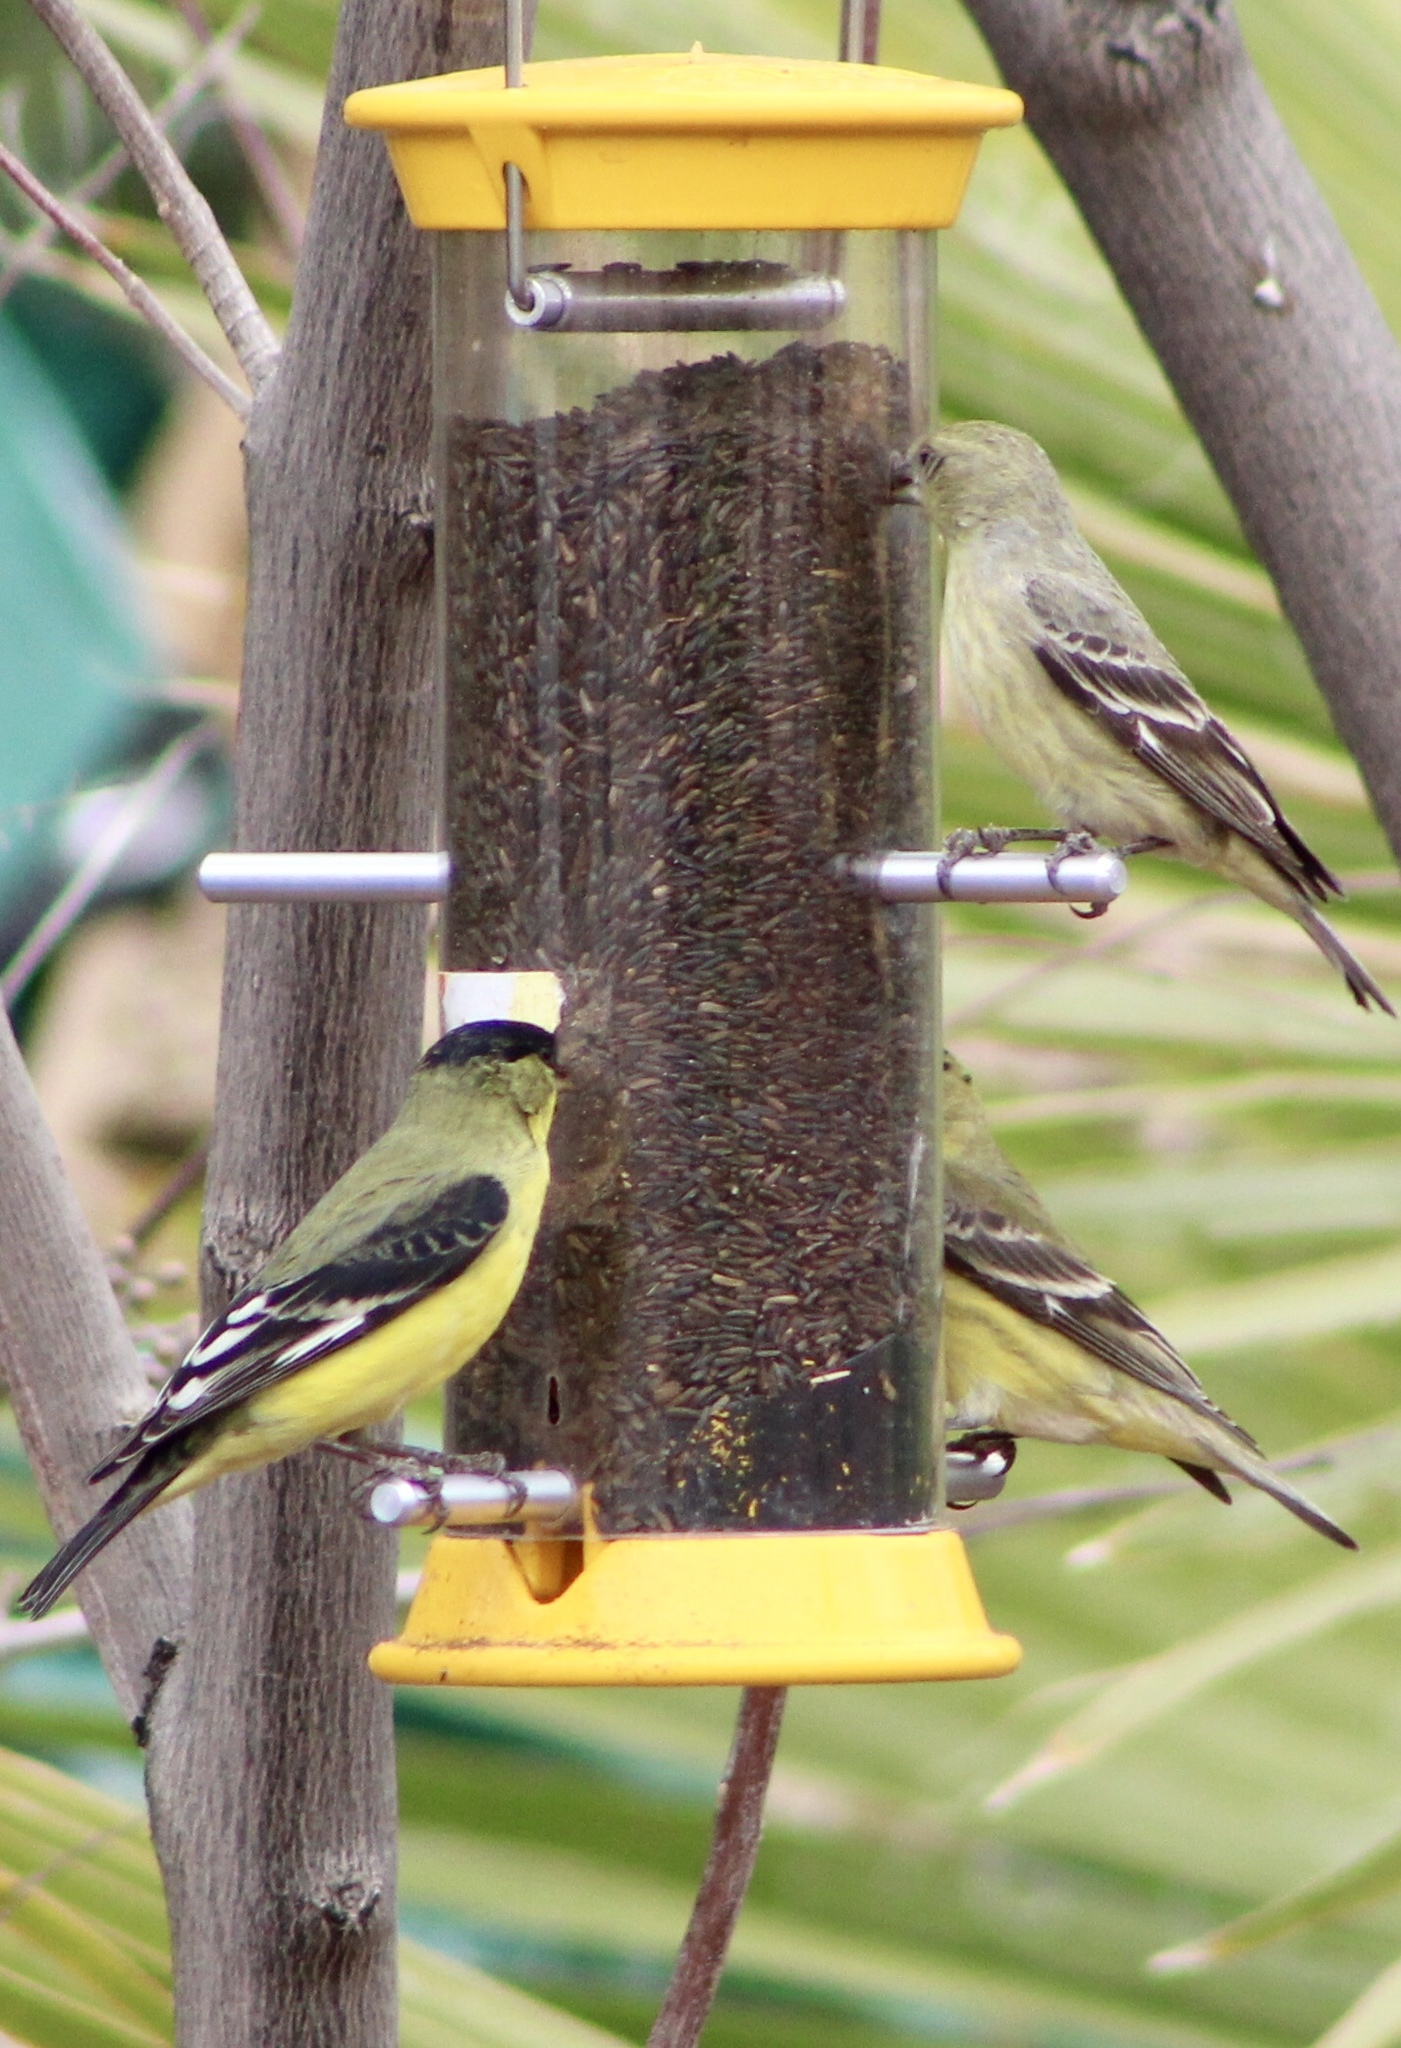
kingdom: Animalia
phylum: Chordata
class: Aves
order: Passeriformes
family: Fringillidae
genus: Spinus
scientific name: Spinus psaltria
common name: Lesser goldfinch
